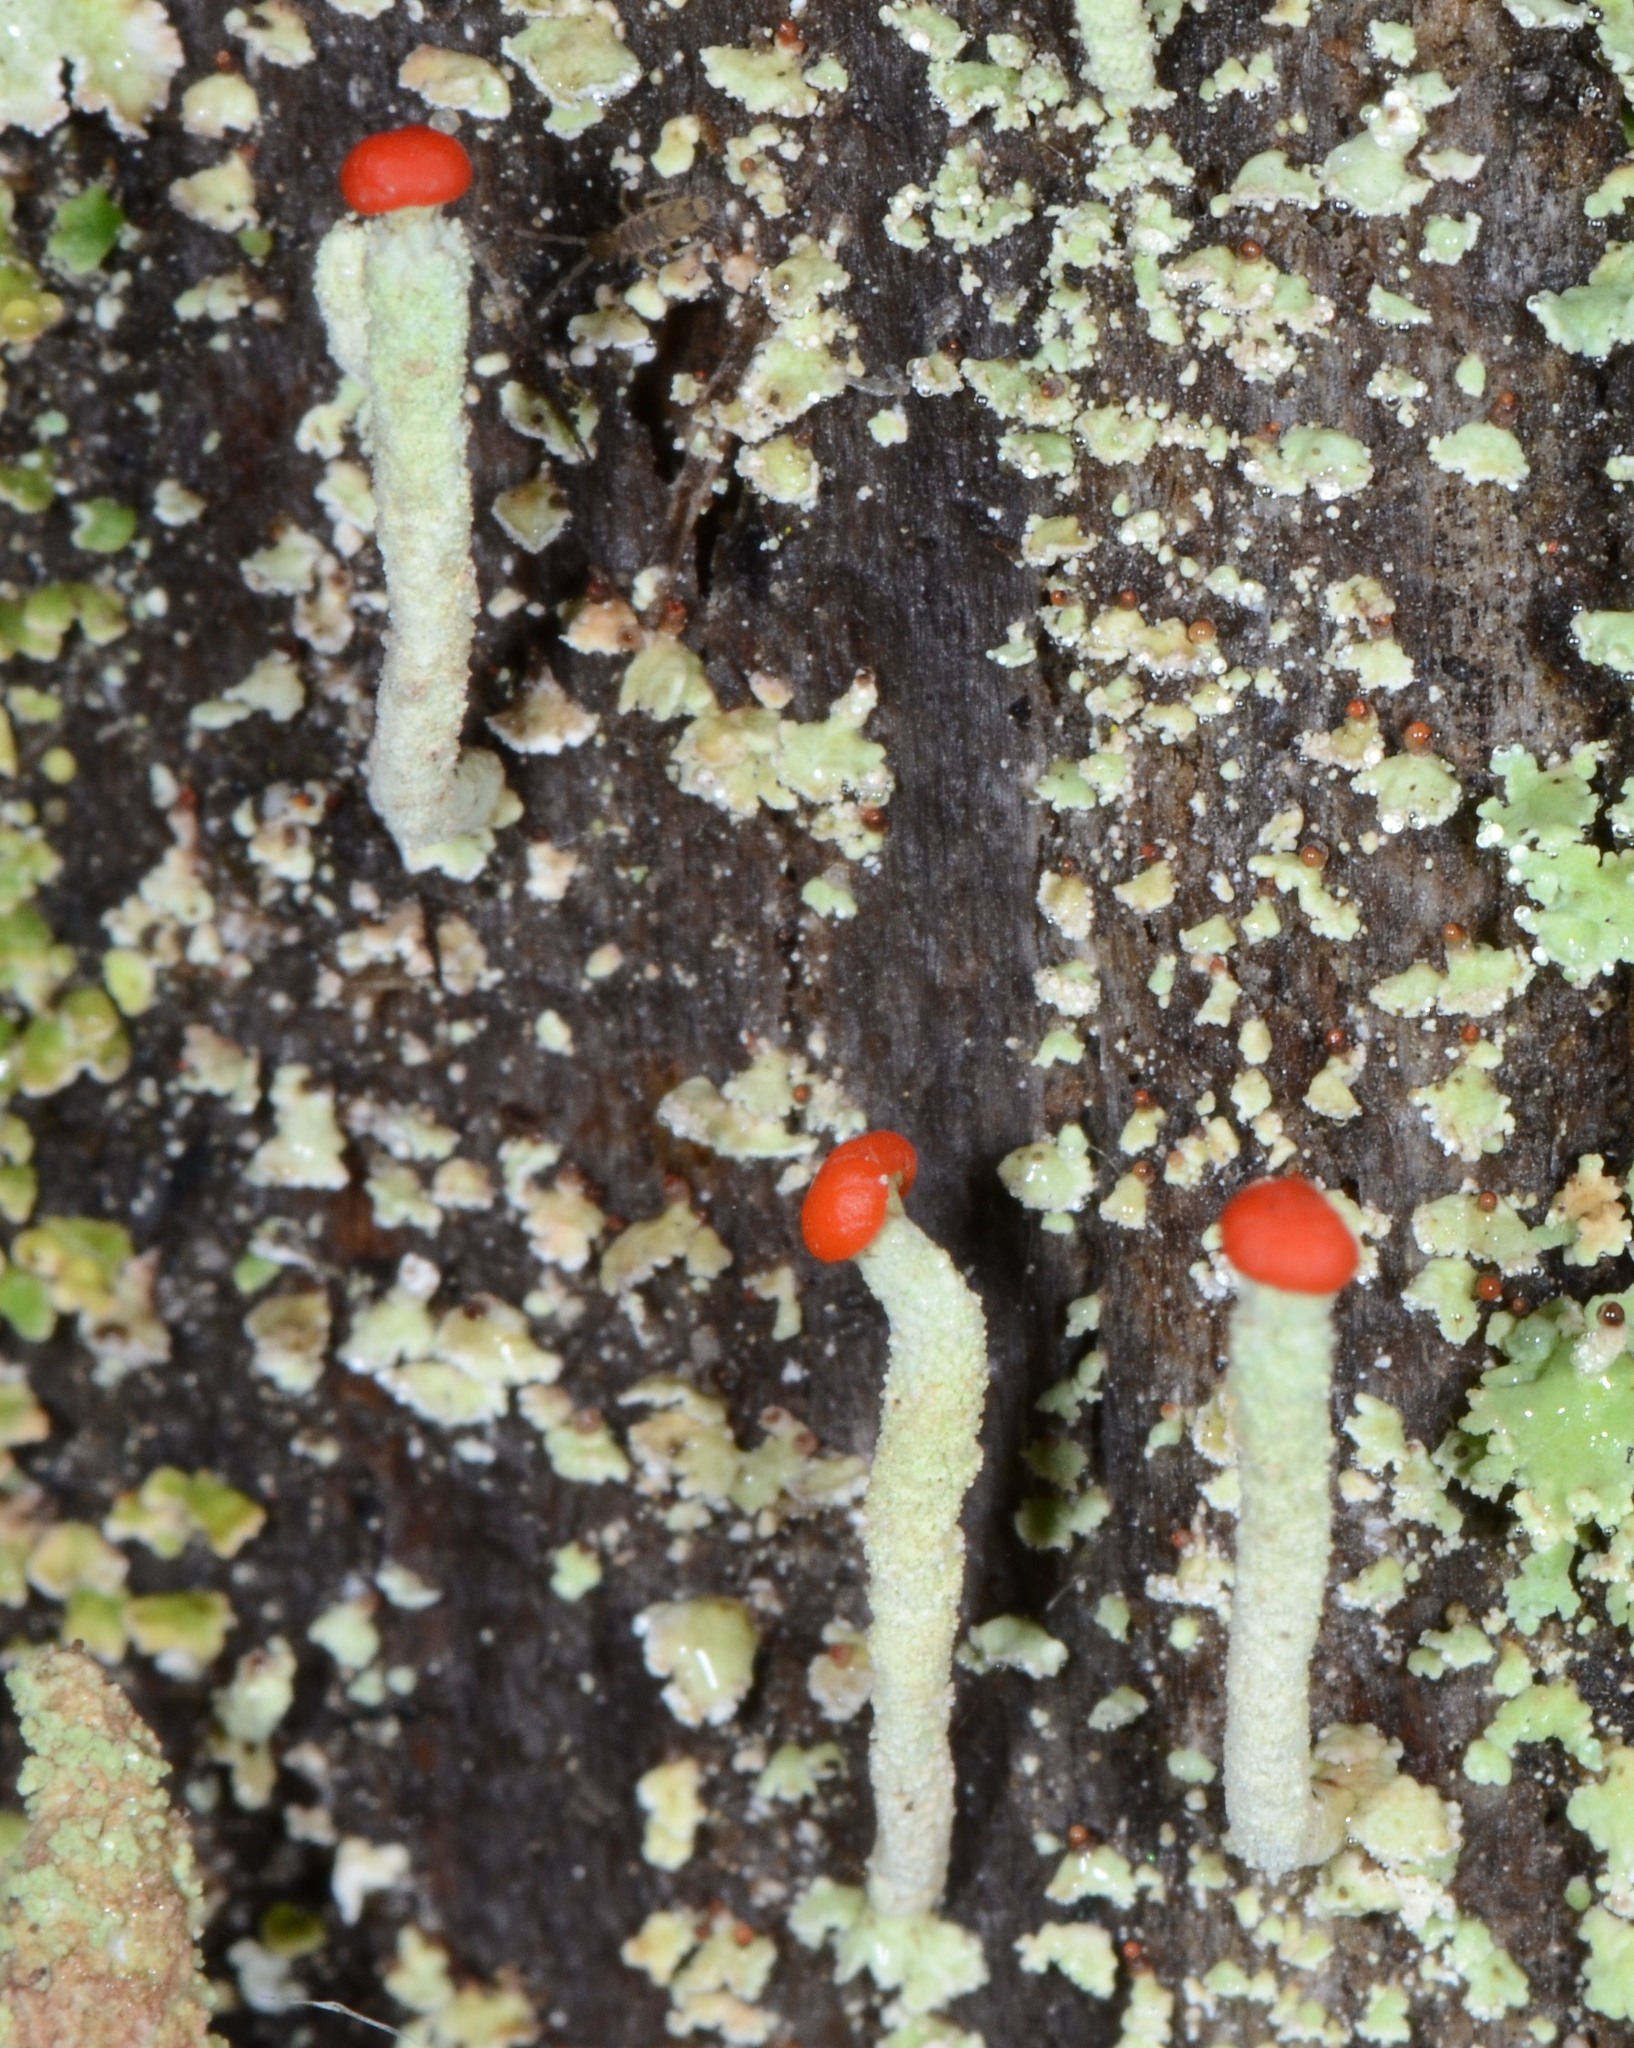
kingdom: Fungi
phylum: Ascomycota
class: Lecanoromycetes
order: Lecanorales
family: Cladoniaceae
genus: Cladonia
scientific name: Cladonia macilenta
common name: Lipstick powderhorn
